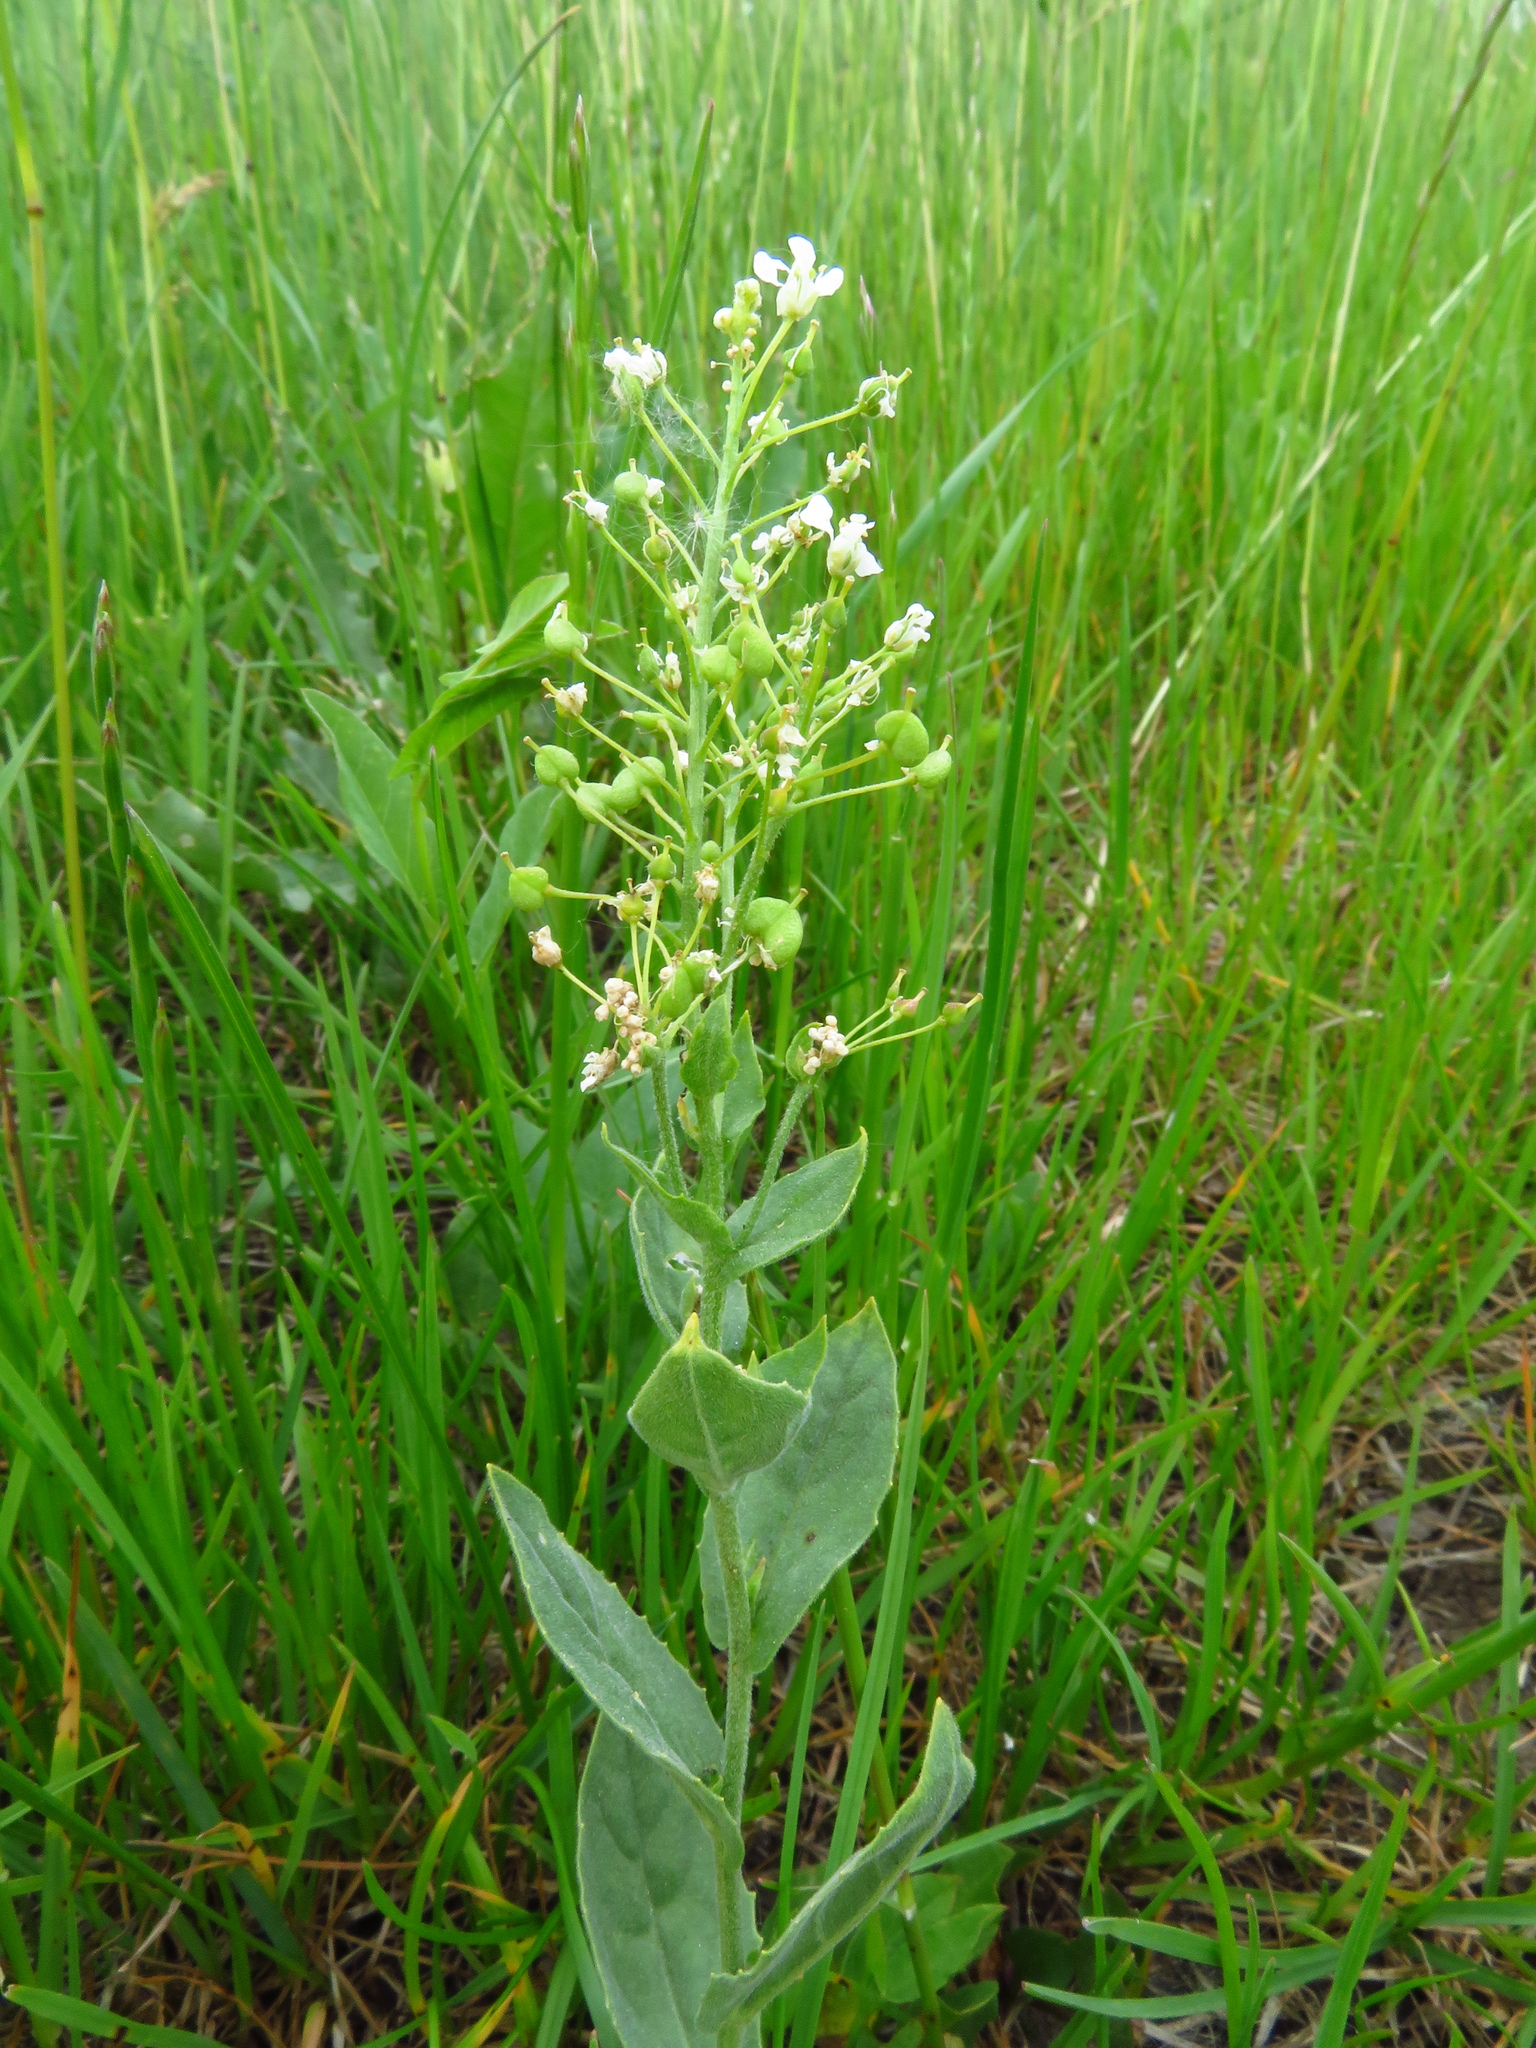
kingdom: Plantae
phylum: Tracheophyta
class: Magnoliopsida
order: Brassicales
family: Brassicaceae
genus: Lepidium
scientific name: Lepidium draba
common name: Hoary cress
